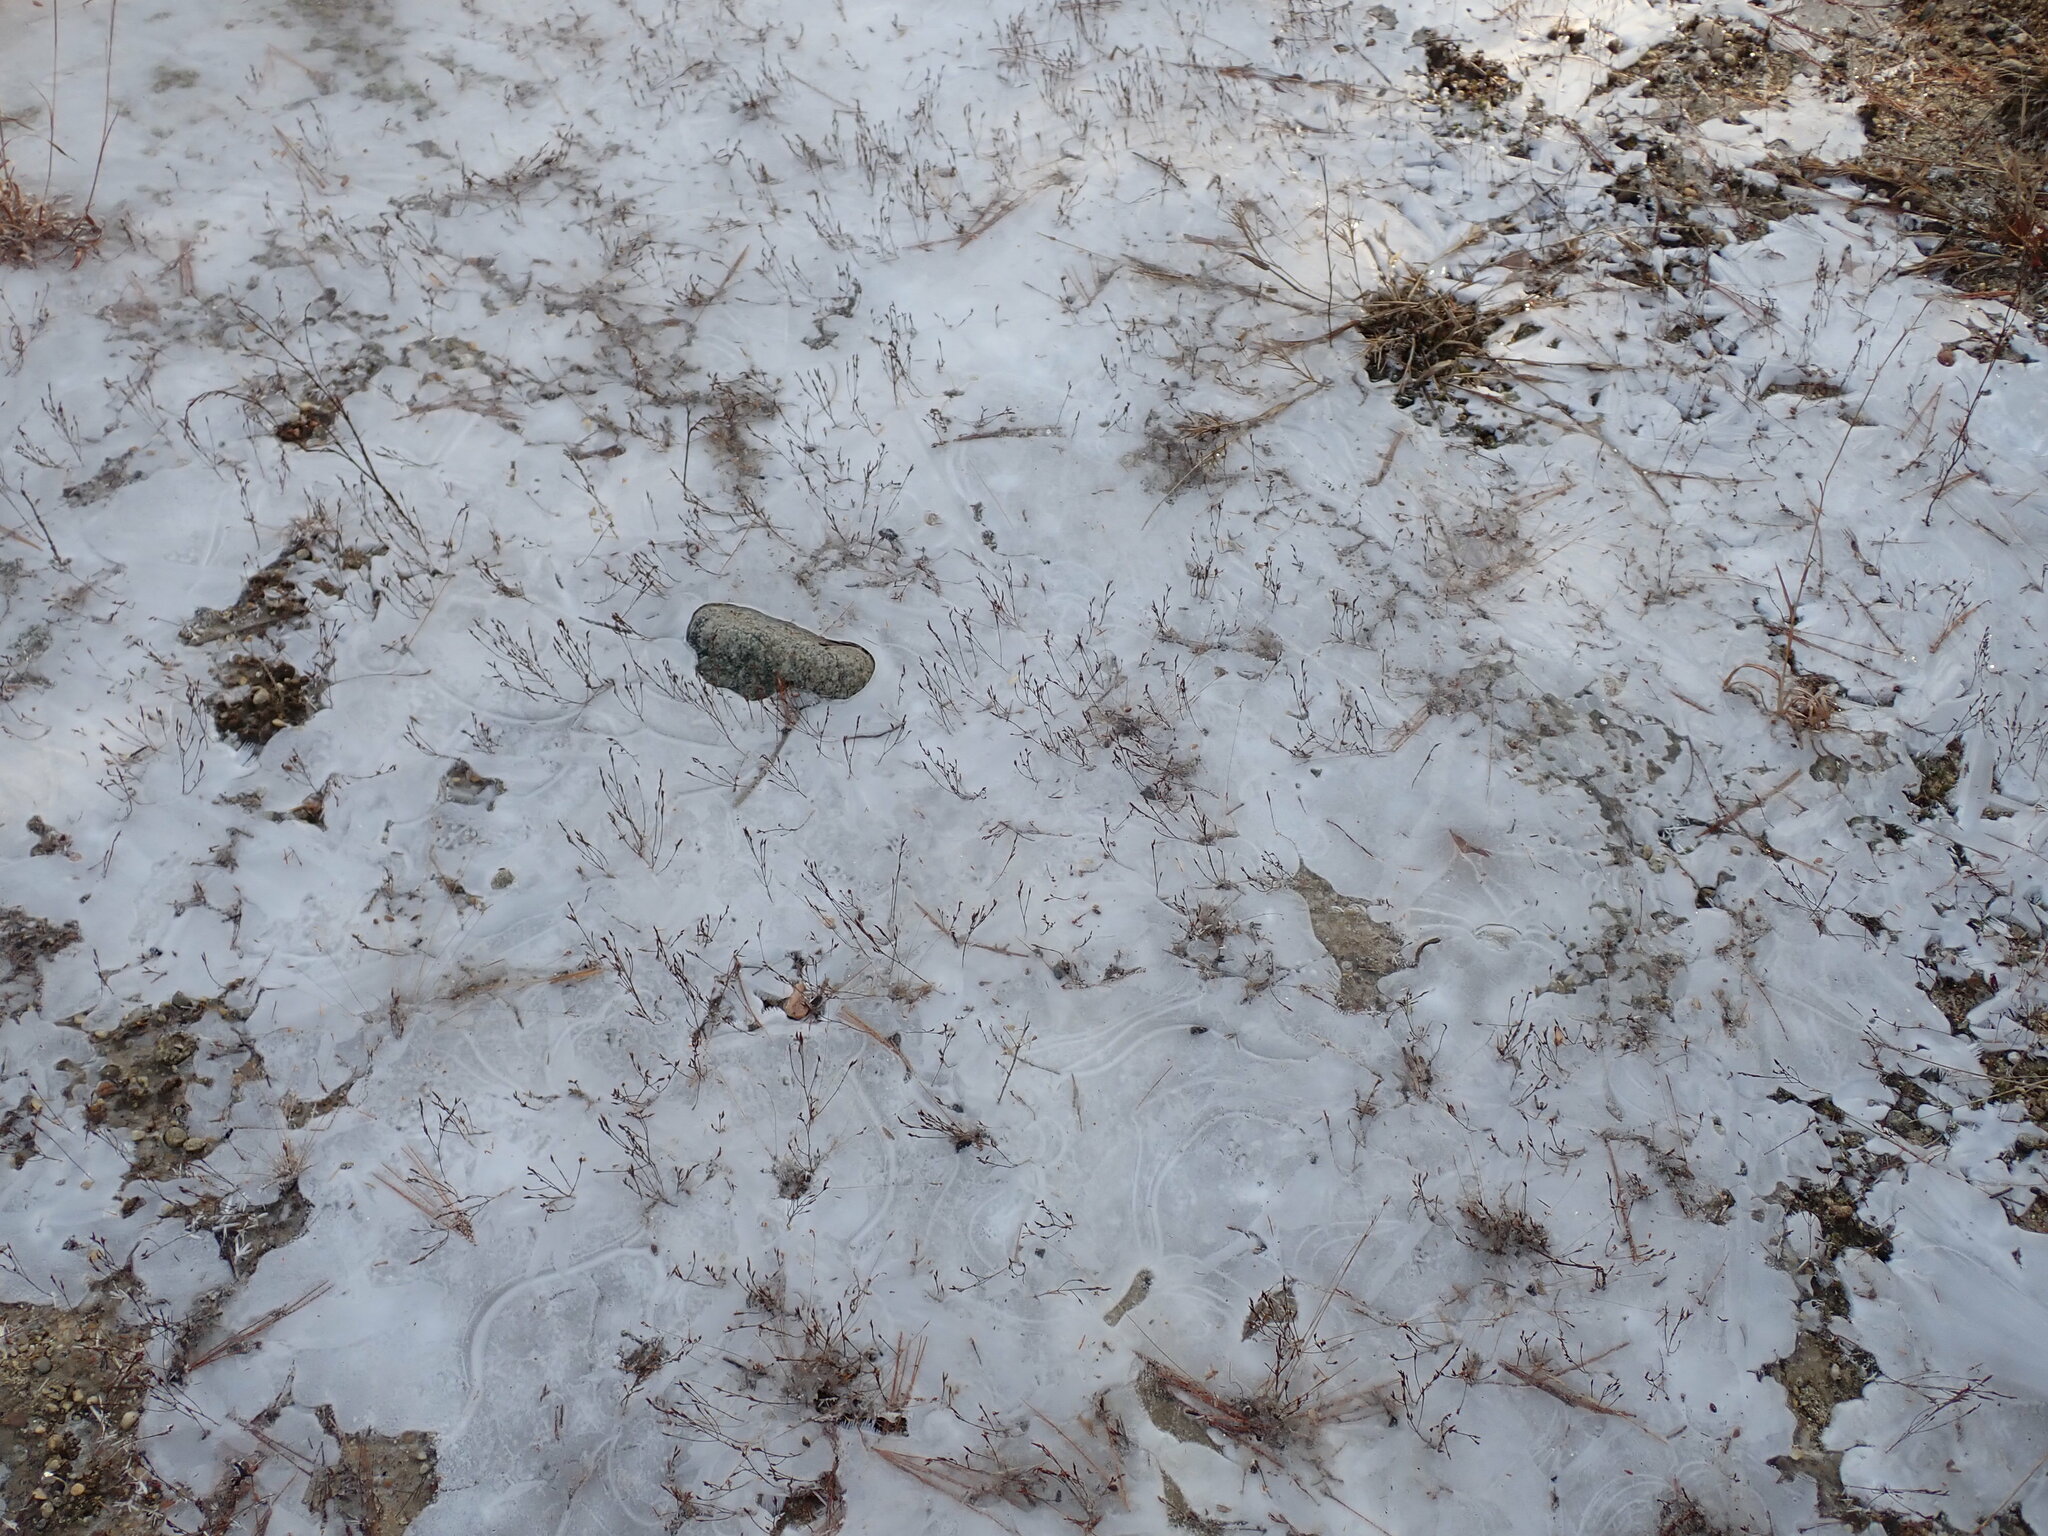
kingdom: Plantae
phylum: Tracheophyta
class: Magnoliopsida
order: Malpighiales
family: Hypericaceae
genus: Hypericum
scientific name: Hypericum gentianoides
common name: Gentian-leaved st. john's-wort
